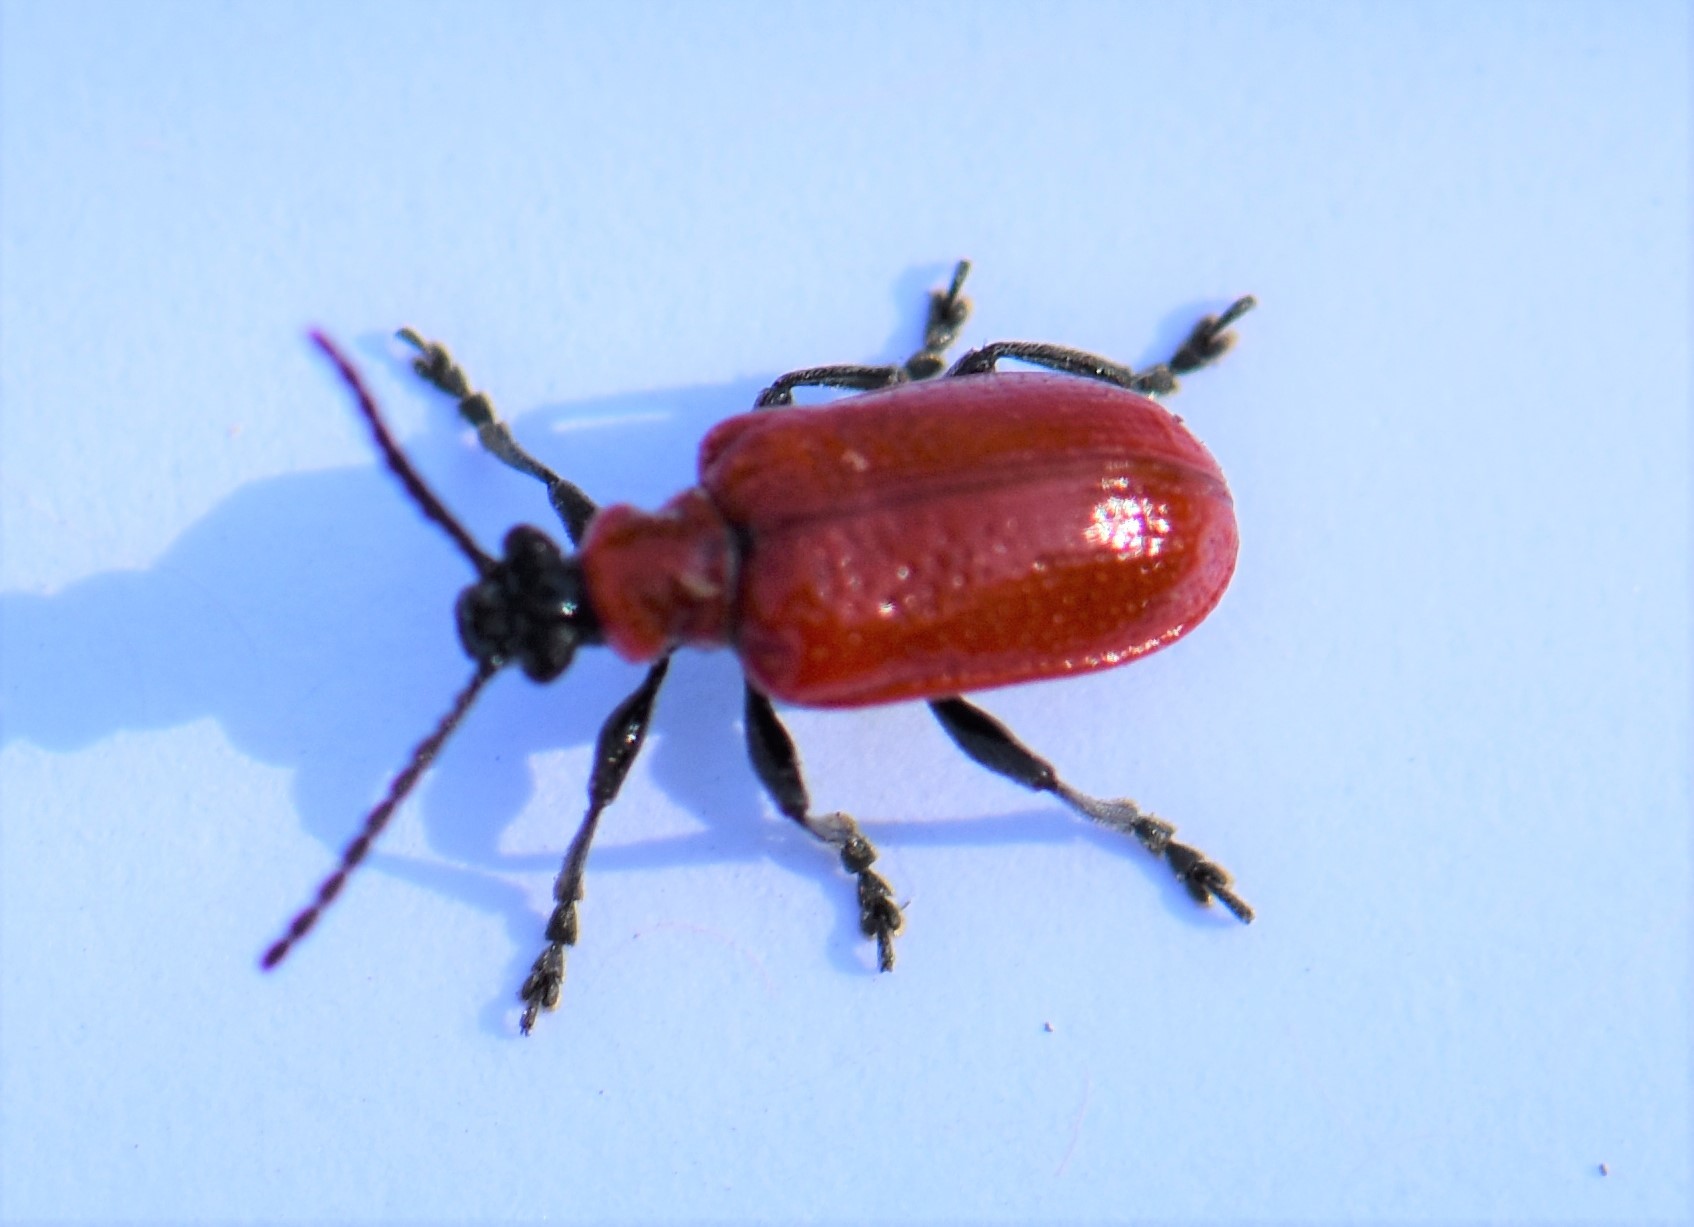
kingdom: Animalia
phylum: Arthropoda
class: Insecta
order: Coleoptera
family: Chrysomelidae
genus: Lilioceris
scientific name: Lilioceris lilii
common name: Lily beetle
